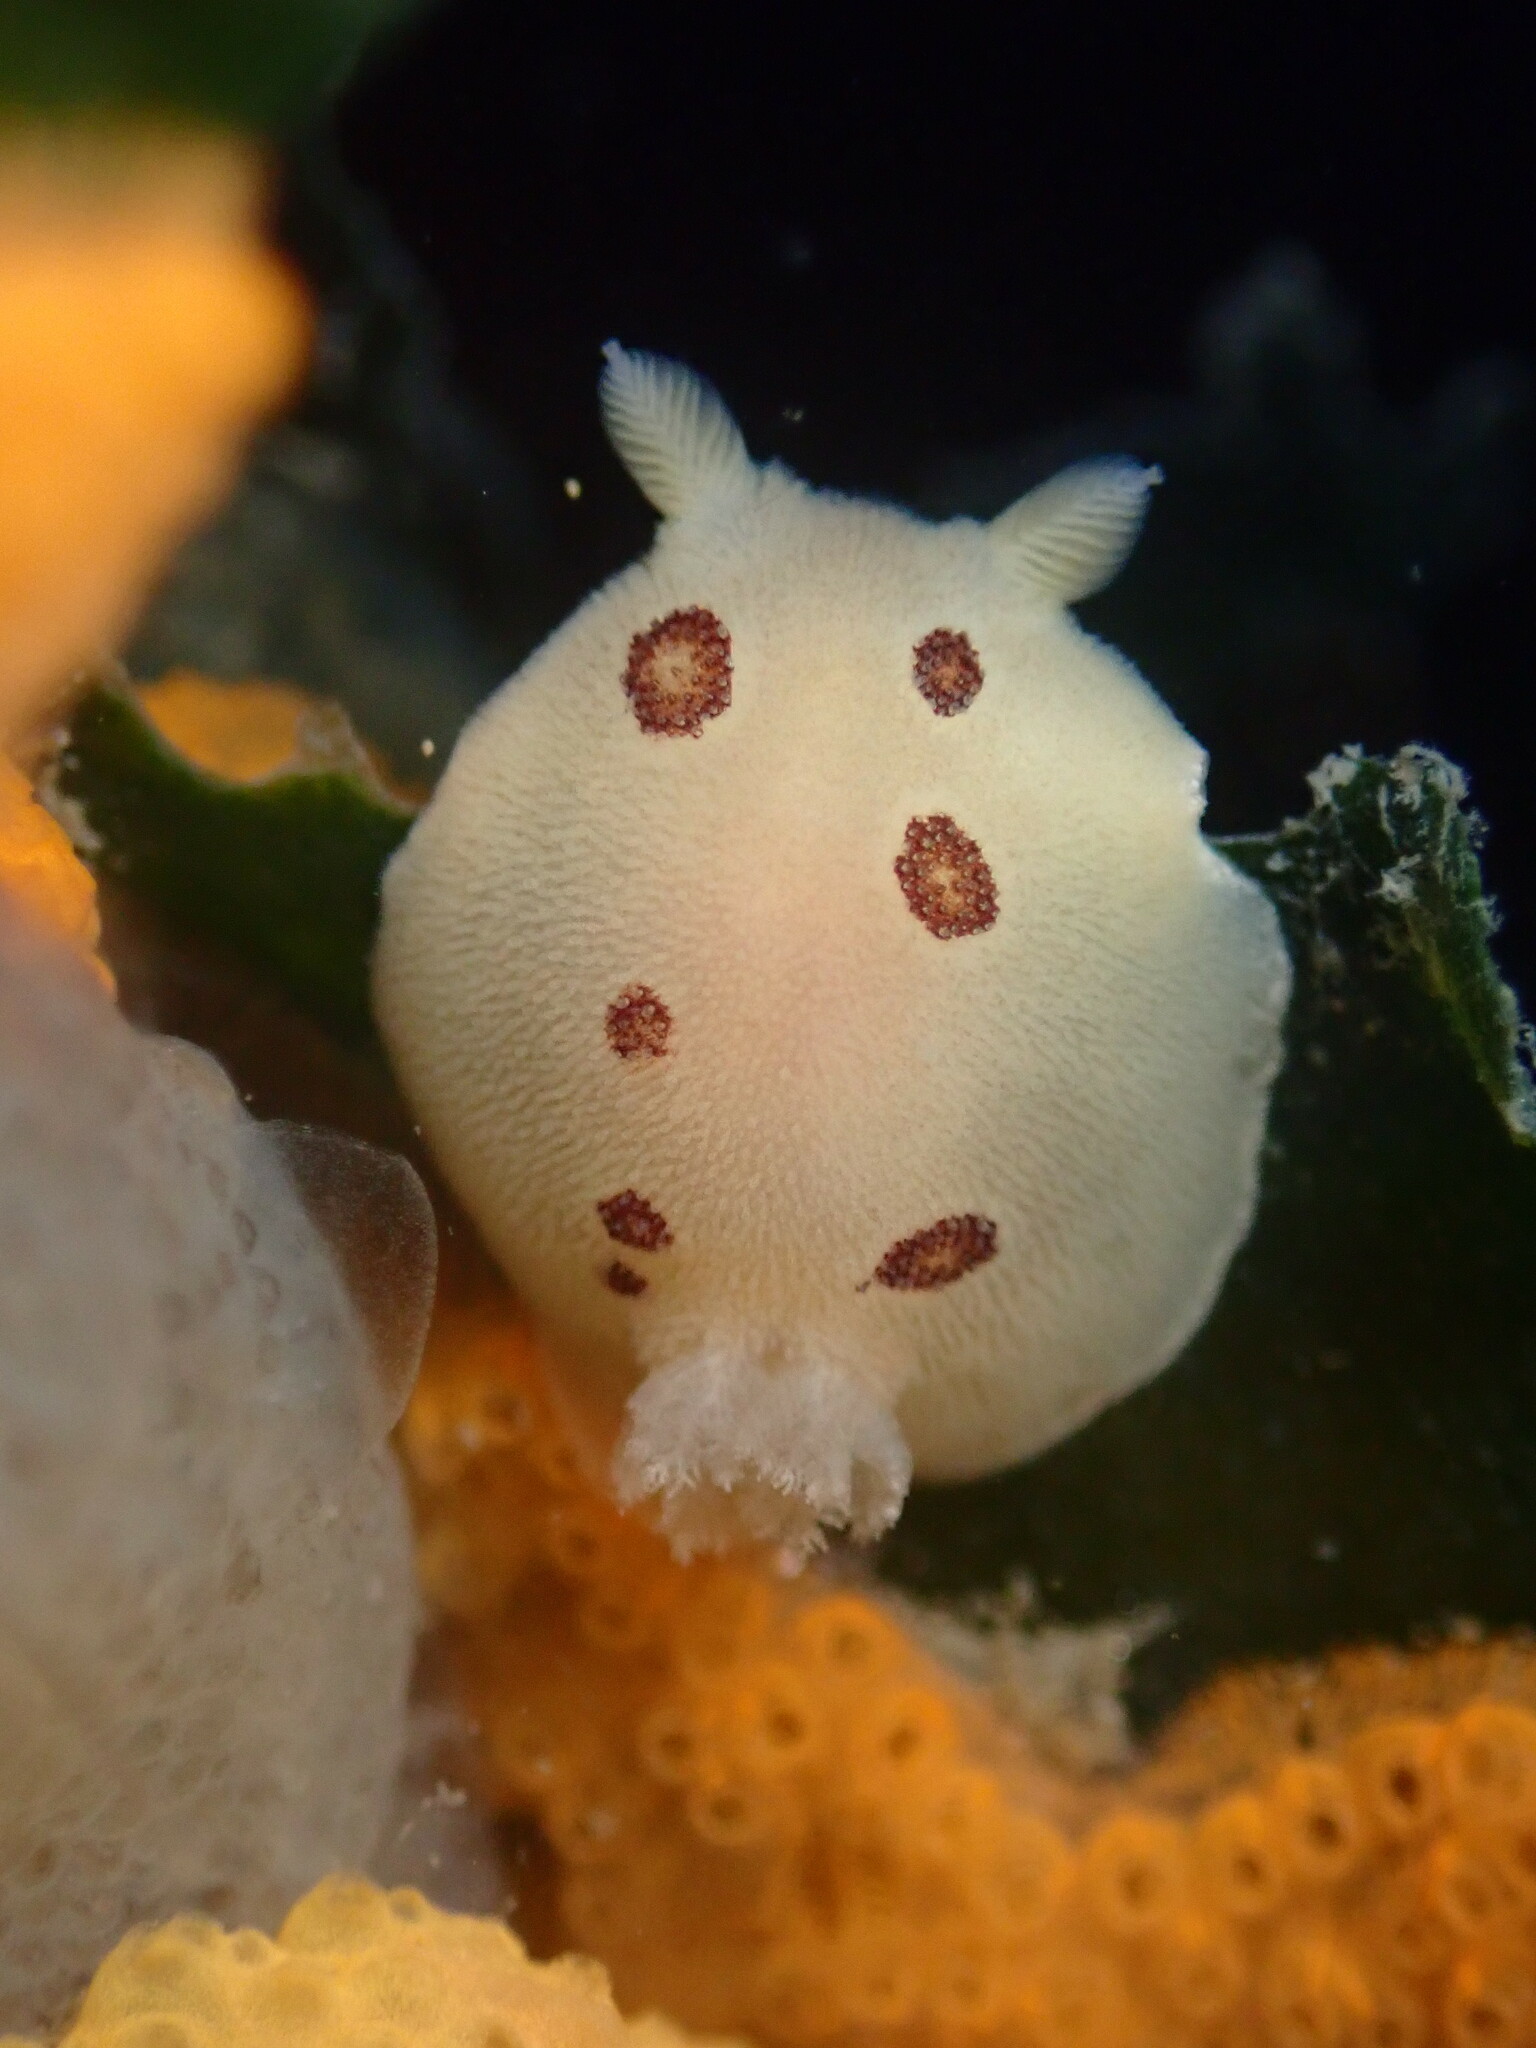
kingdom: Animalia
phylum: Mollusca
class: Gastropoda
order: Nudibranchia
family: Discodorididae
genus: Diaulula
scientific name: Diaulula sandiegensis
